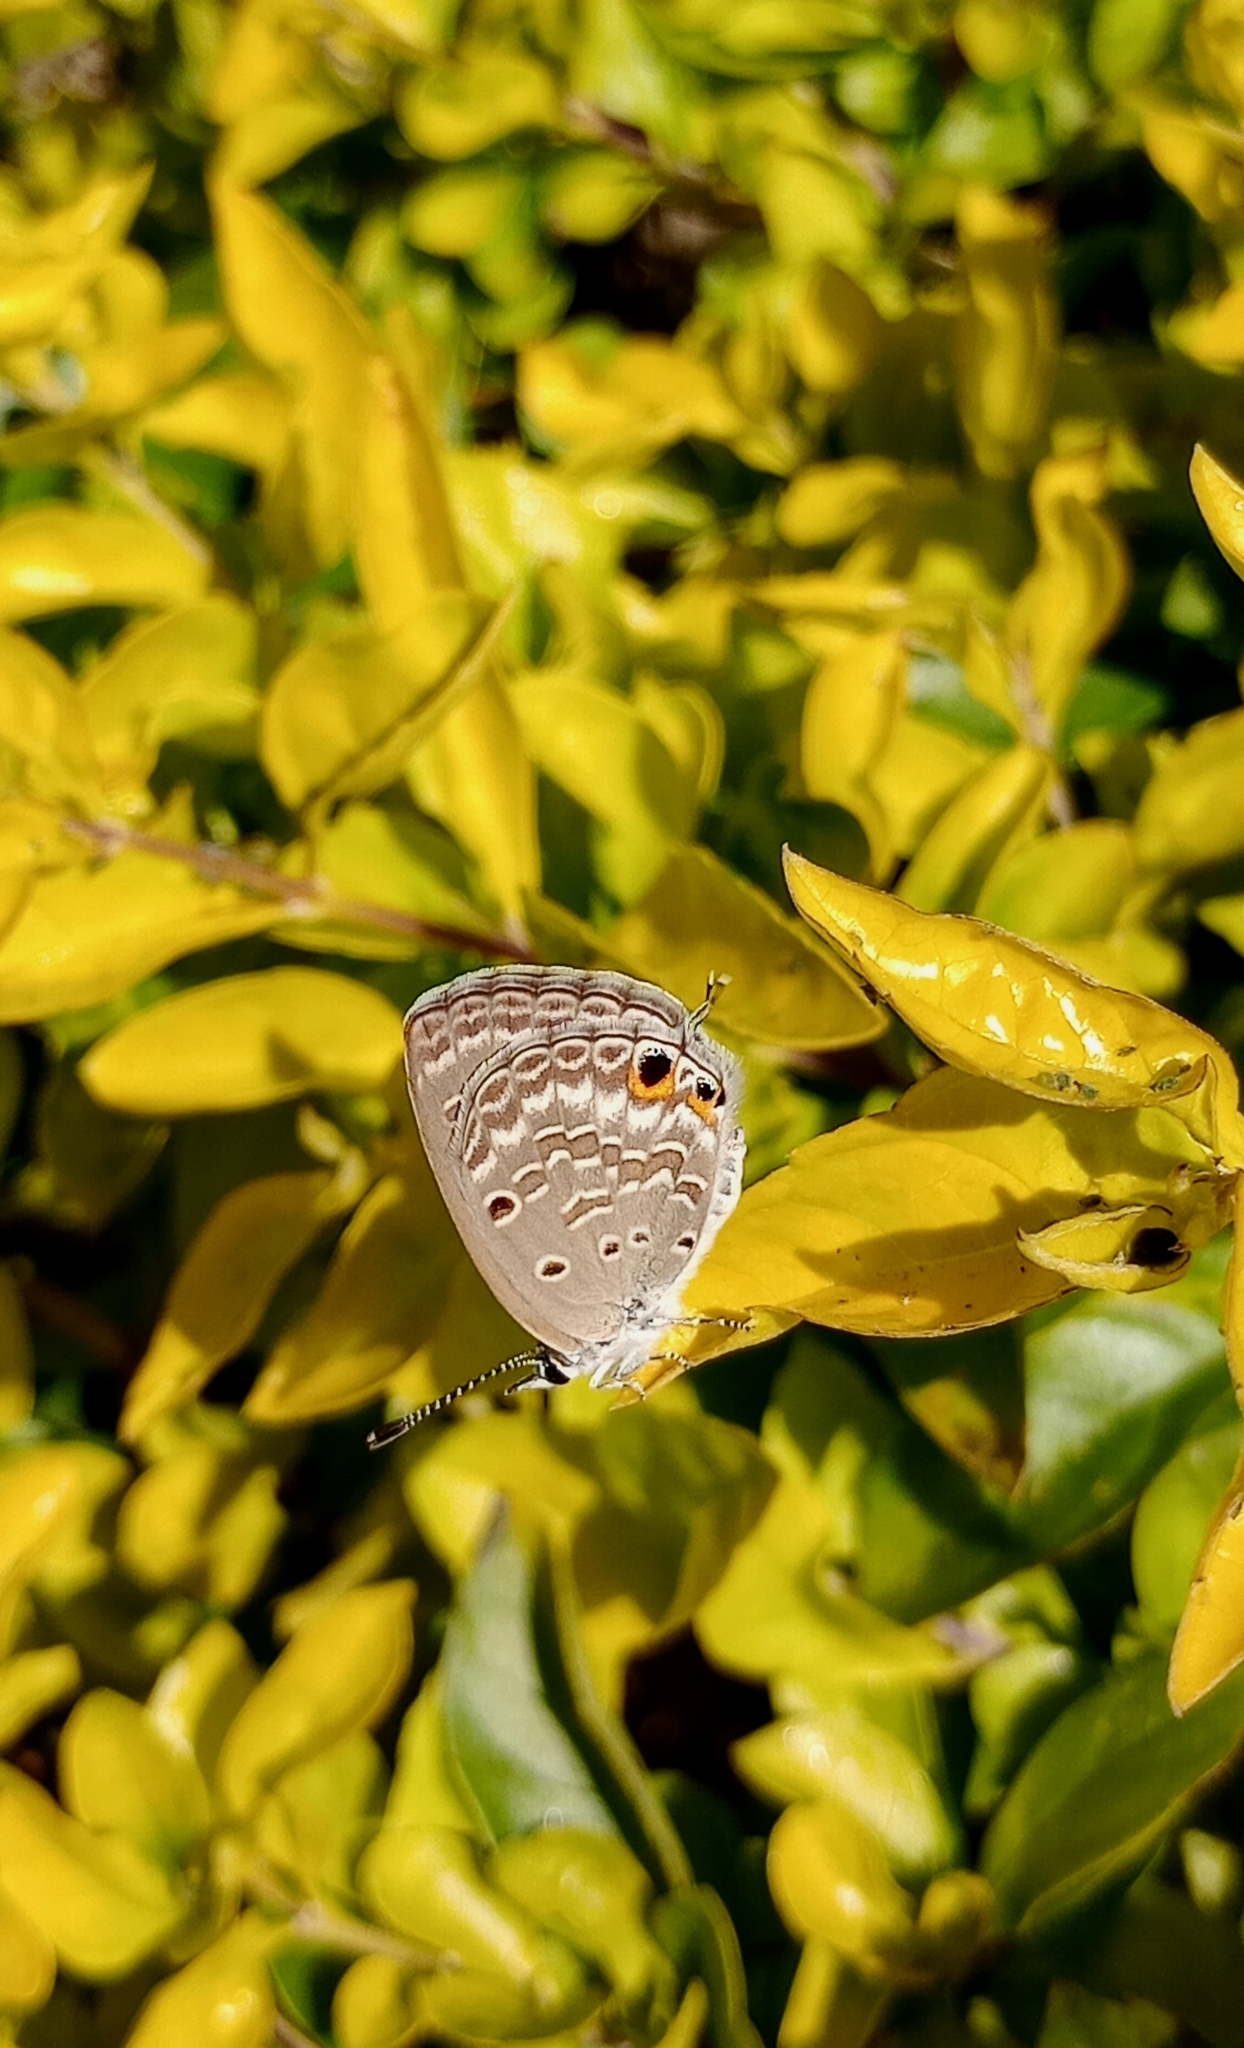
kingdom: Animalia
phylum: Arthropoda
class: Insecta
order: Lepidoptera
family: Lycaenidae
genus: Luthrodes
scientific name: Luthrodes pandava
